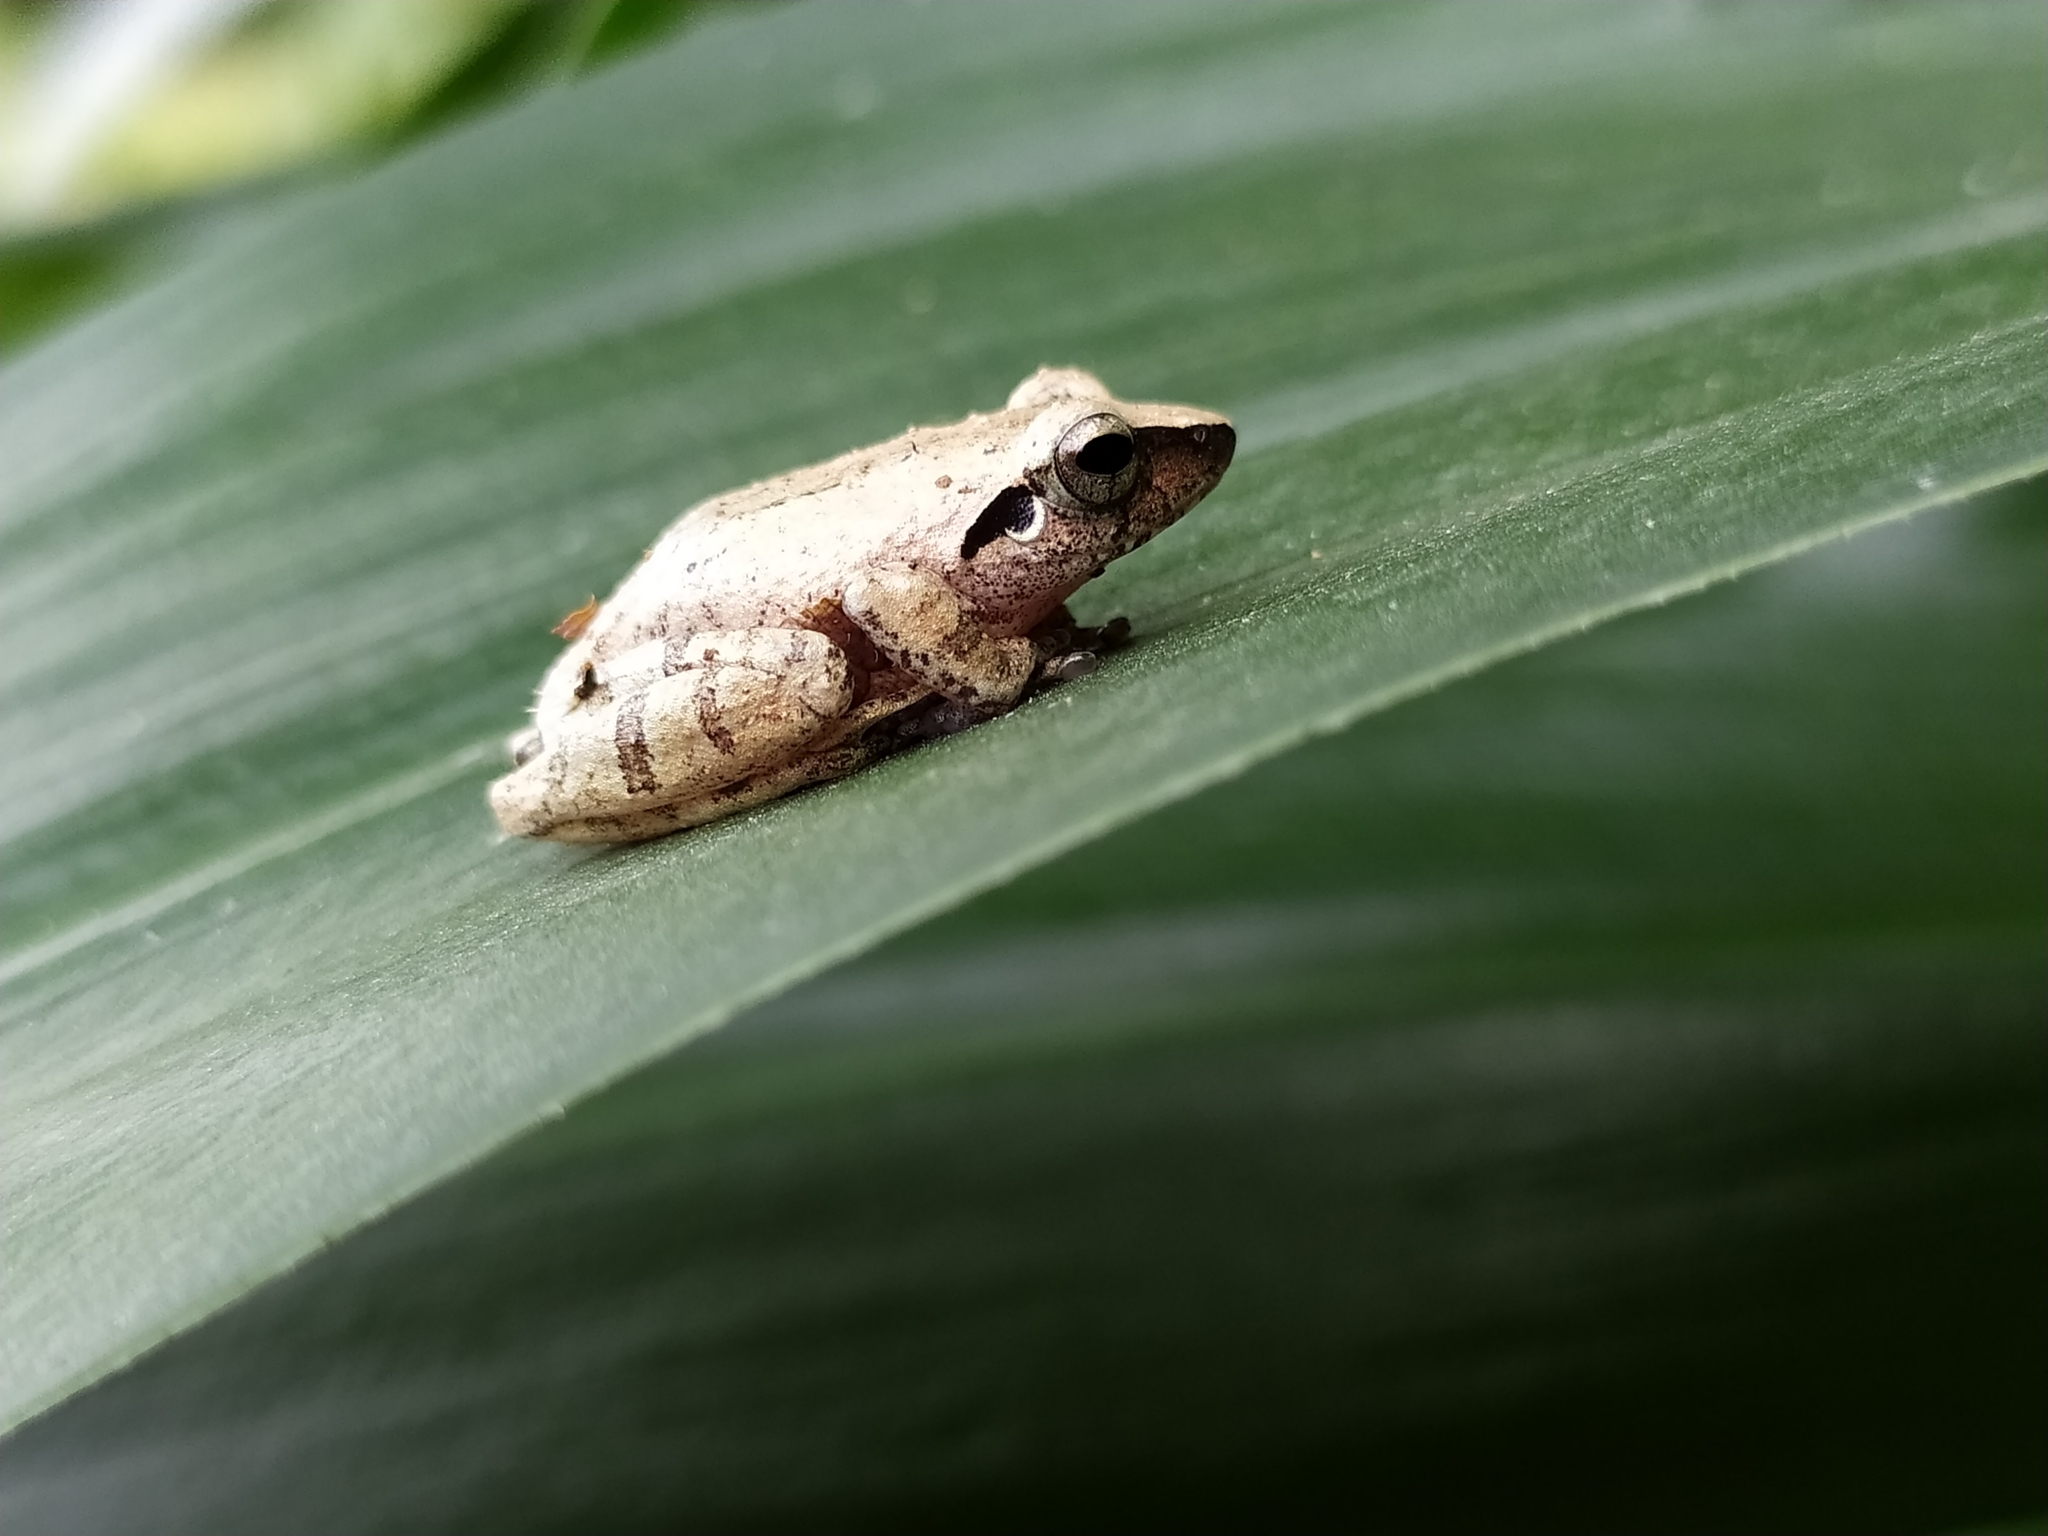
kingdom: Animalia
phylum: Chordata
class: Amphibia
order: Anura
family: Rhacophoridae
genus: Pseudophilautus
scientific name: Pseudophilautus wynaadensis
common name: Dark-eared bush frog
